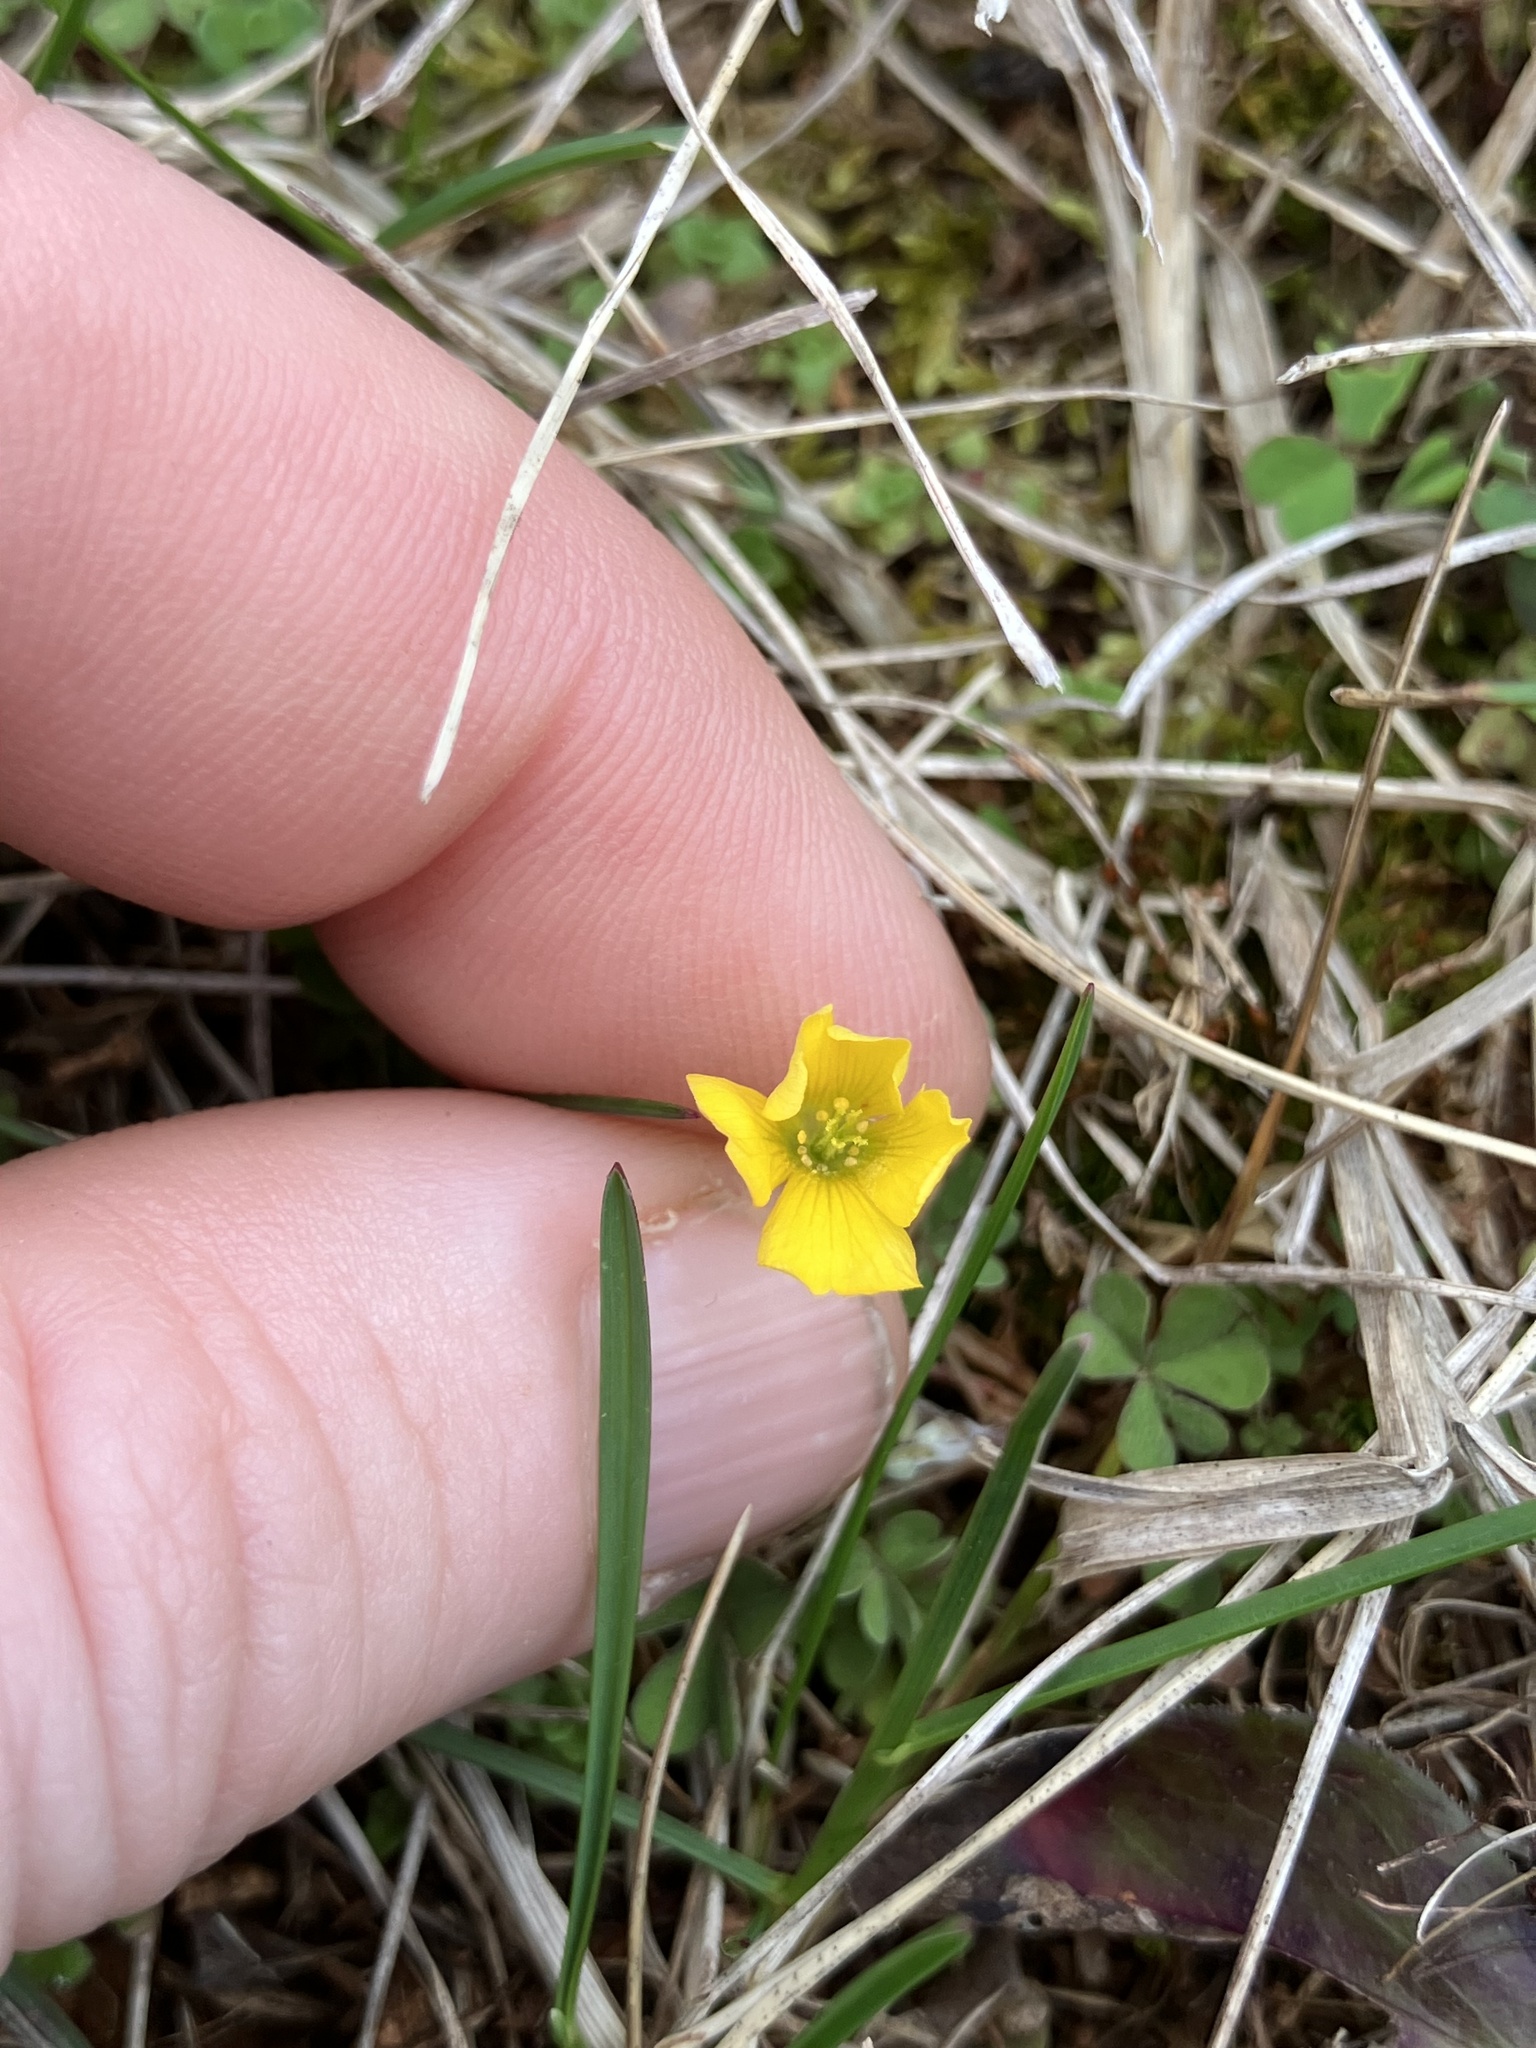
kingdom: Plantae
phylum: Tracheophyta
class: Magnoliopsida
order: Oxalidales
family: Oxalidaceae
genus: Oxalis
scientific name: Oxalis corniculata
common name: Procumbent yellow-sorrel
